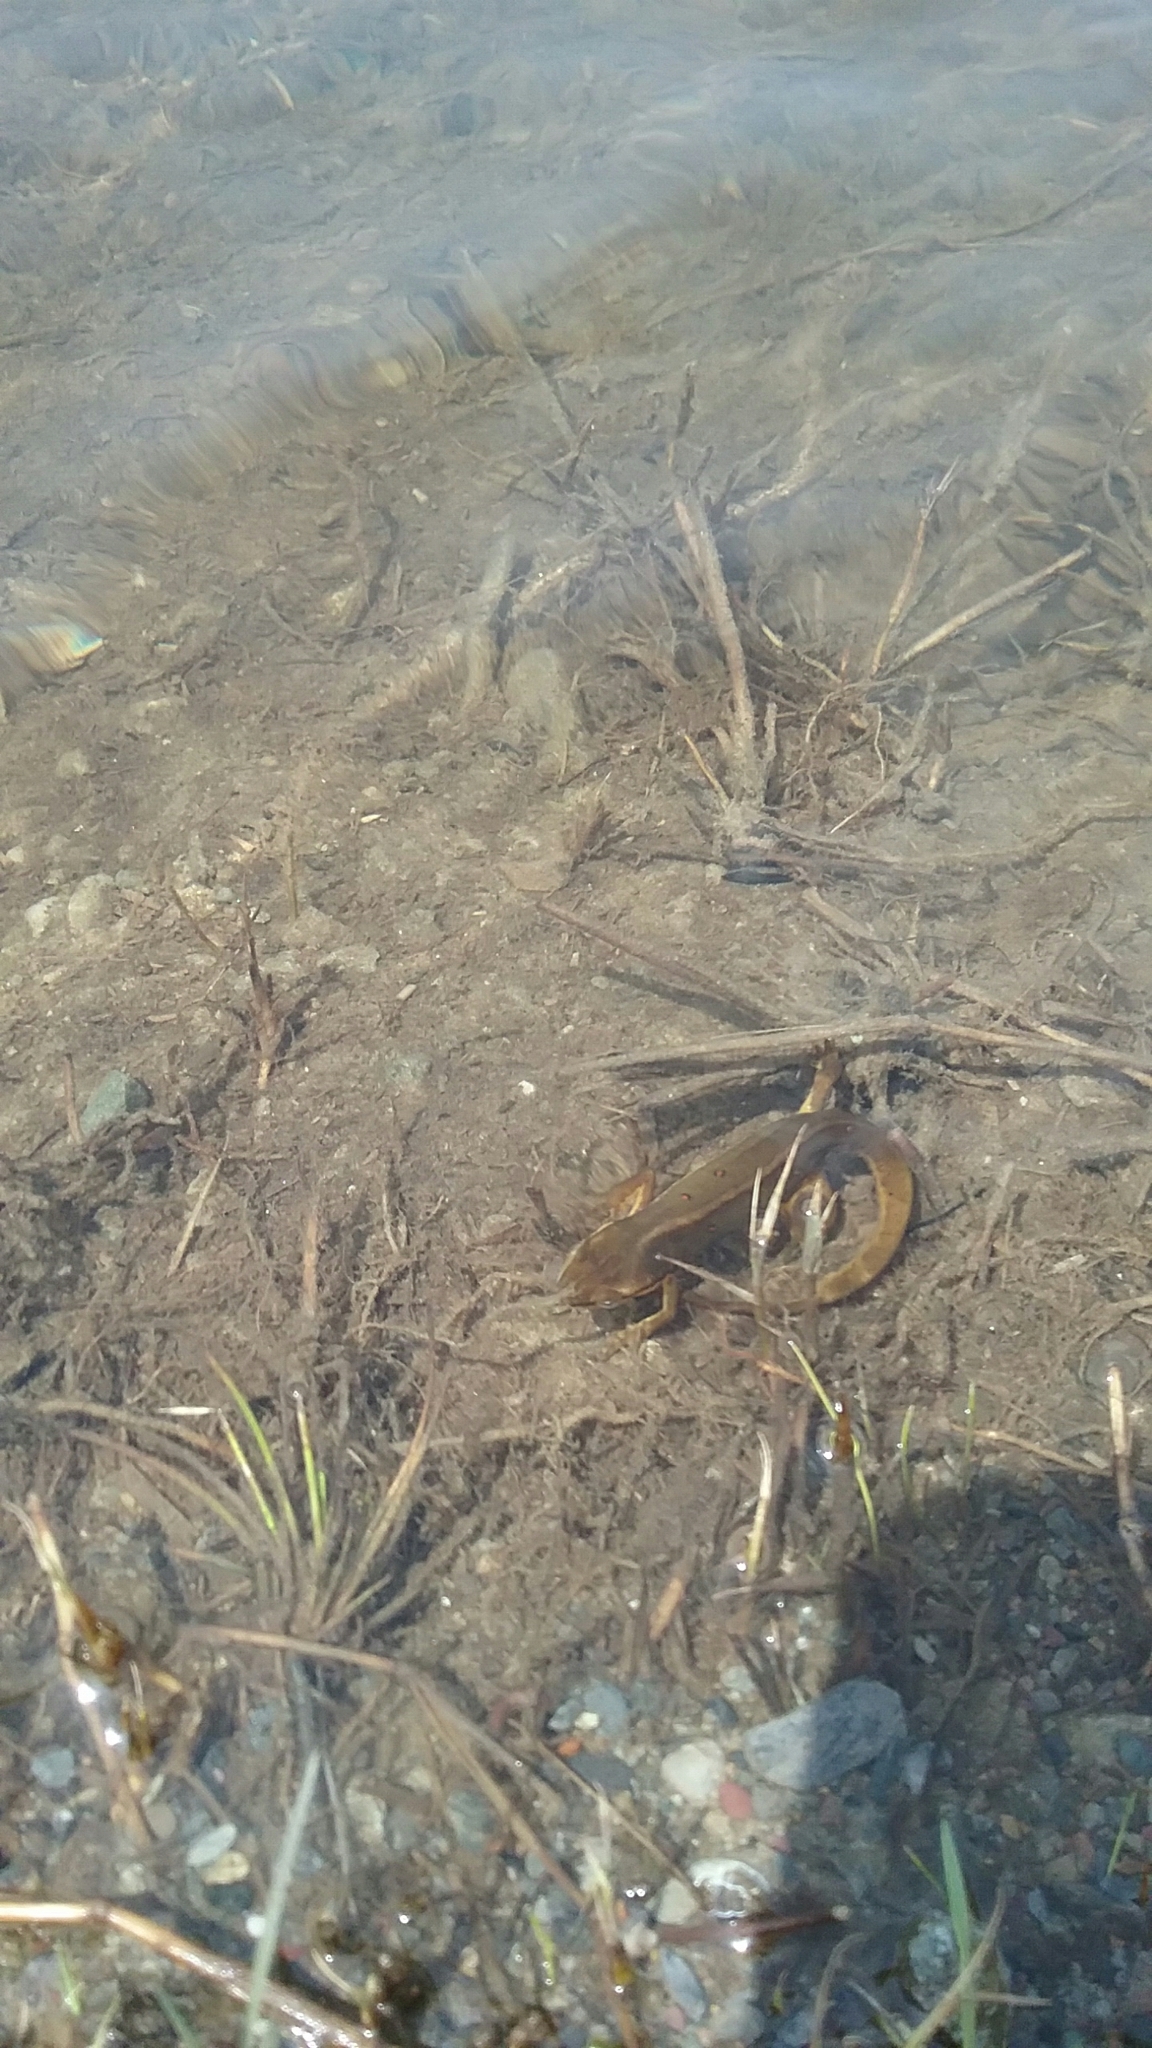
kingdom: Animalia
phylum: Chordata
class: Amphibia
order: Caudata
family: Salamandridae
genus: Notophthalmus
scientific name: Notophthalmus viridescens
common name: Eastern newt
